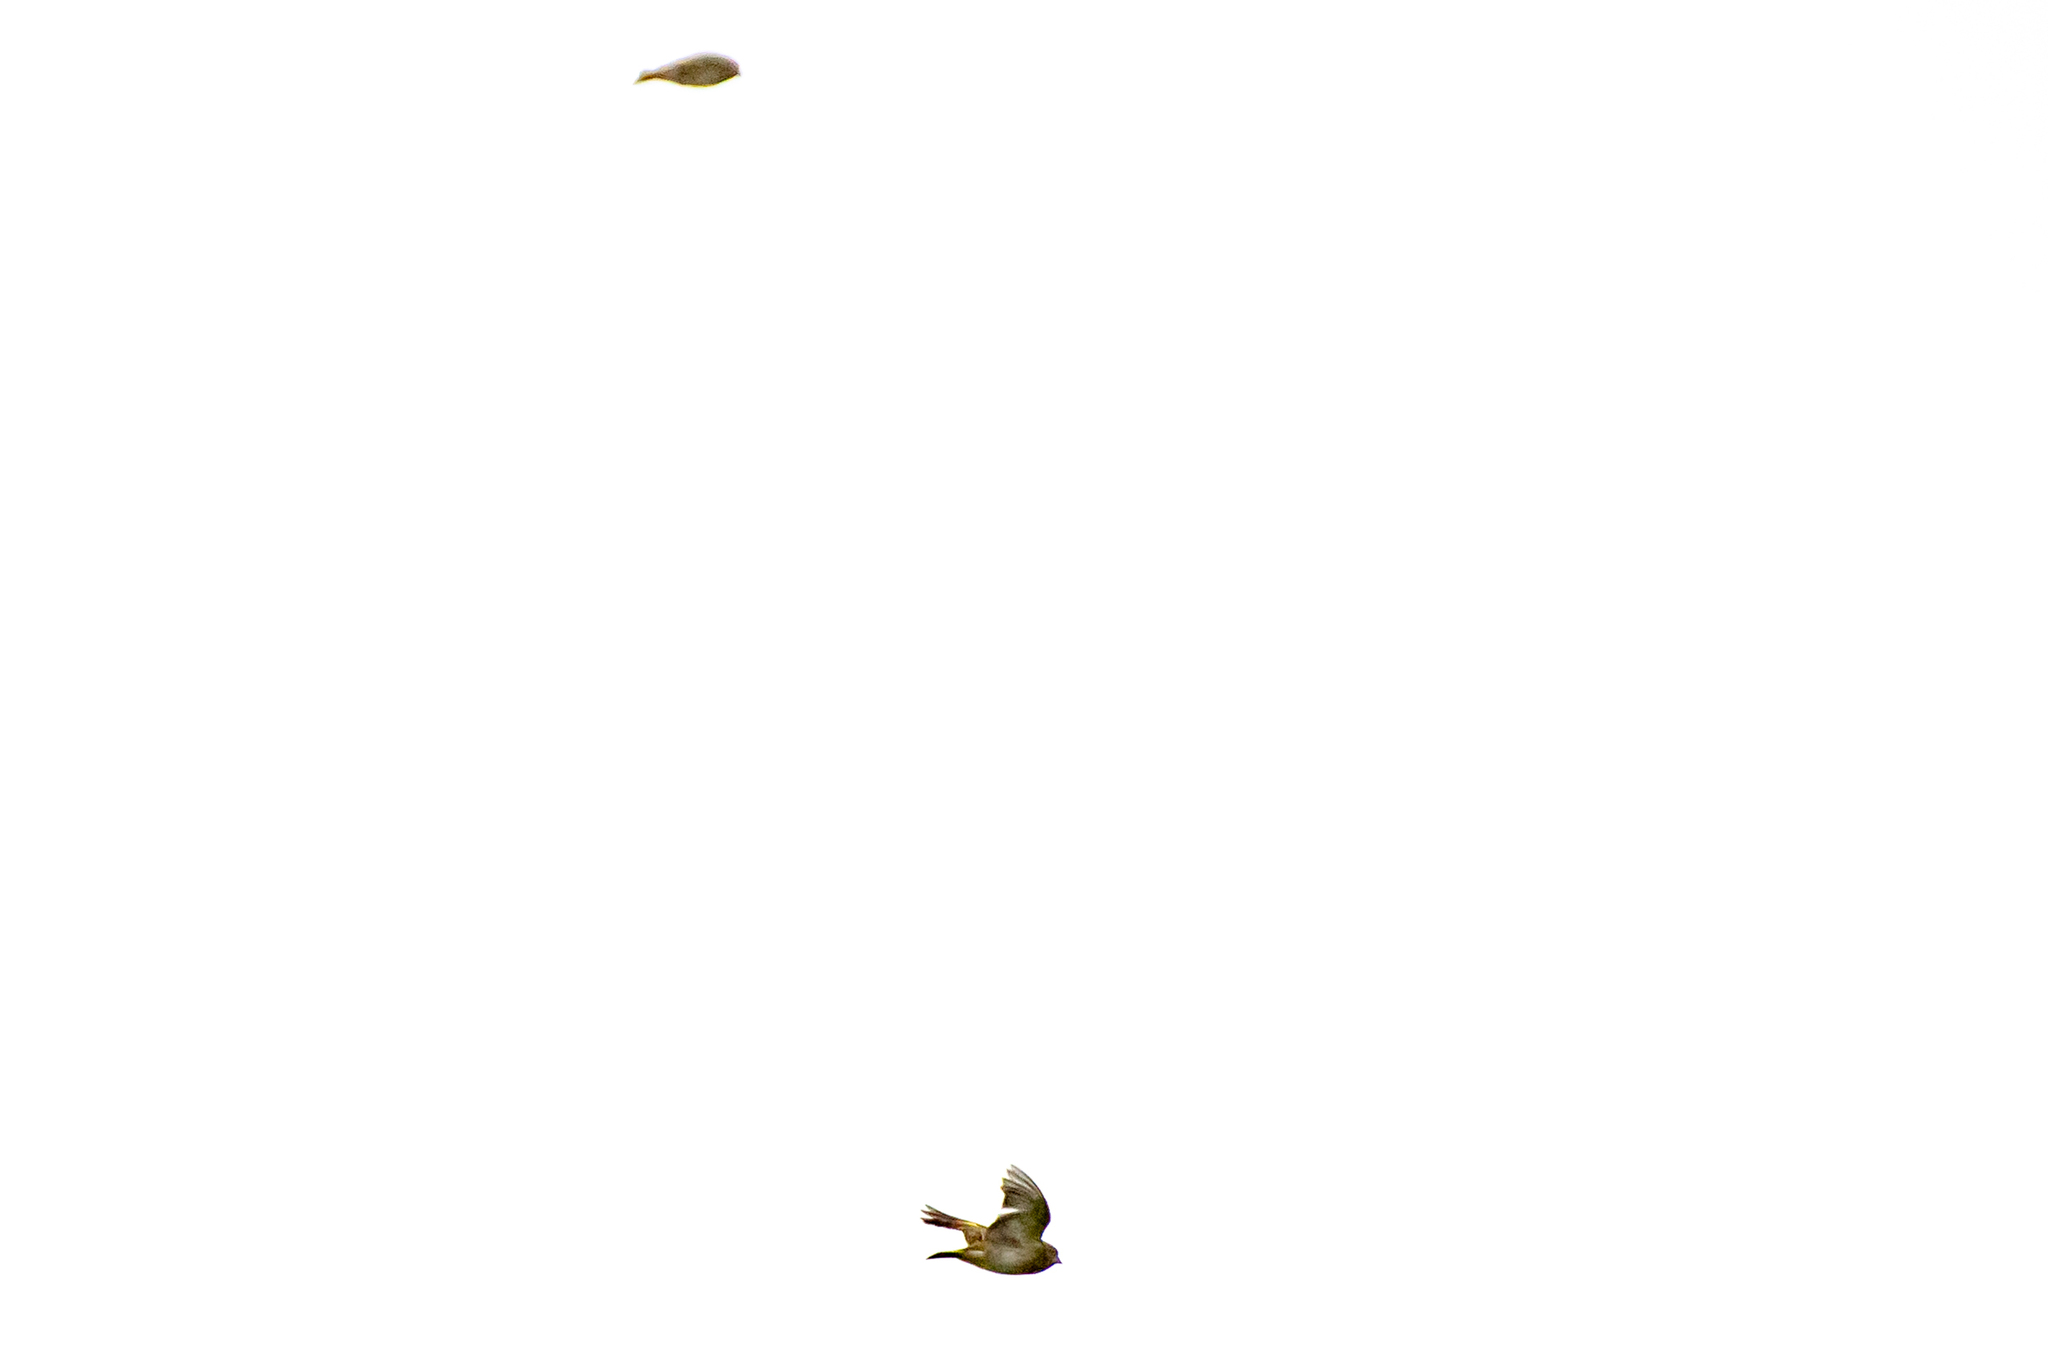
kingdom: Plantae
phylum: Tracheophyta
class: Liliopsida
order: Poales
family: Poaceae
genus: Chloris
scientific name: Chloris chloris
